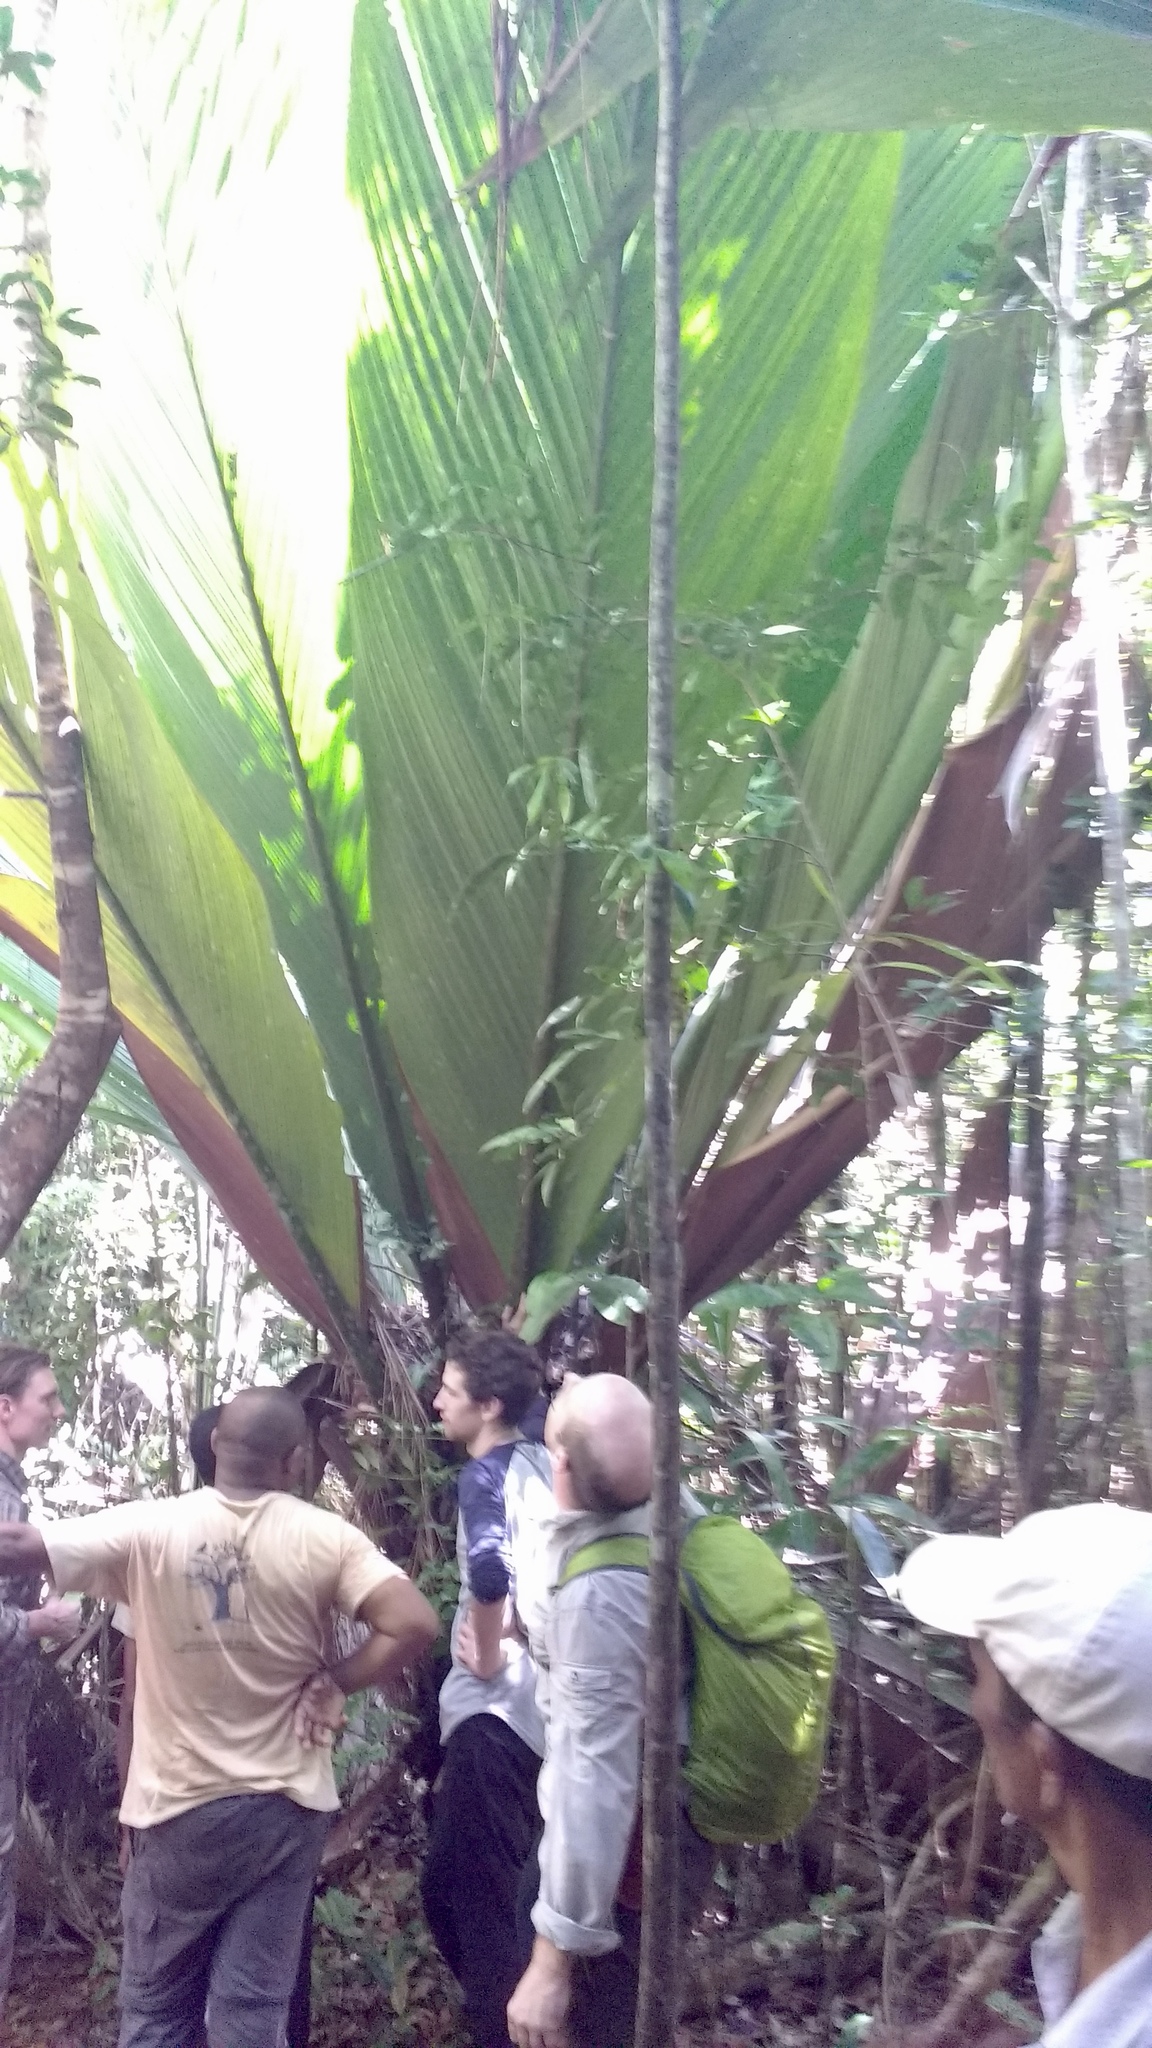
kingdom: Plantae
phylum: Tracheophyta
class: Liliopsida
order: Arecales
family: Arecaceae
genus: Marojejya
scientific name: Marojejya darianii
